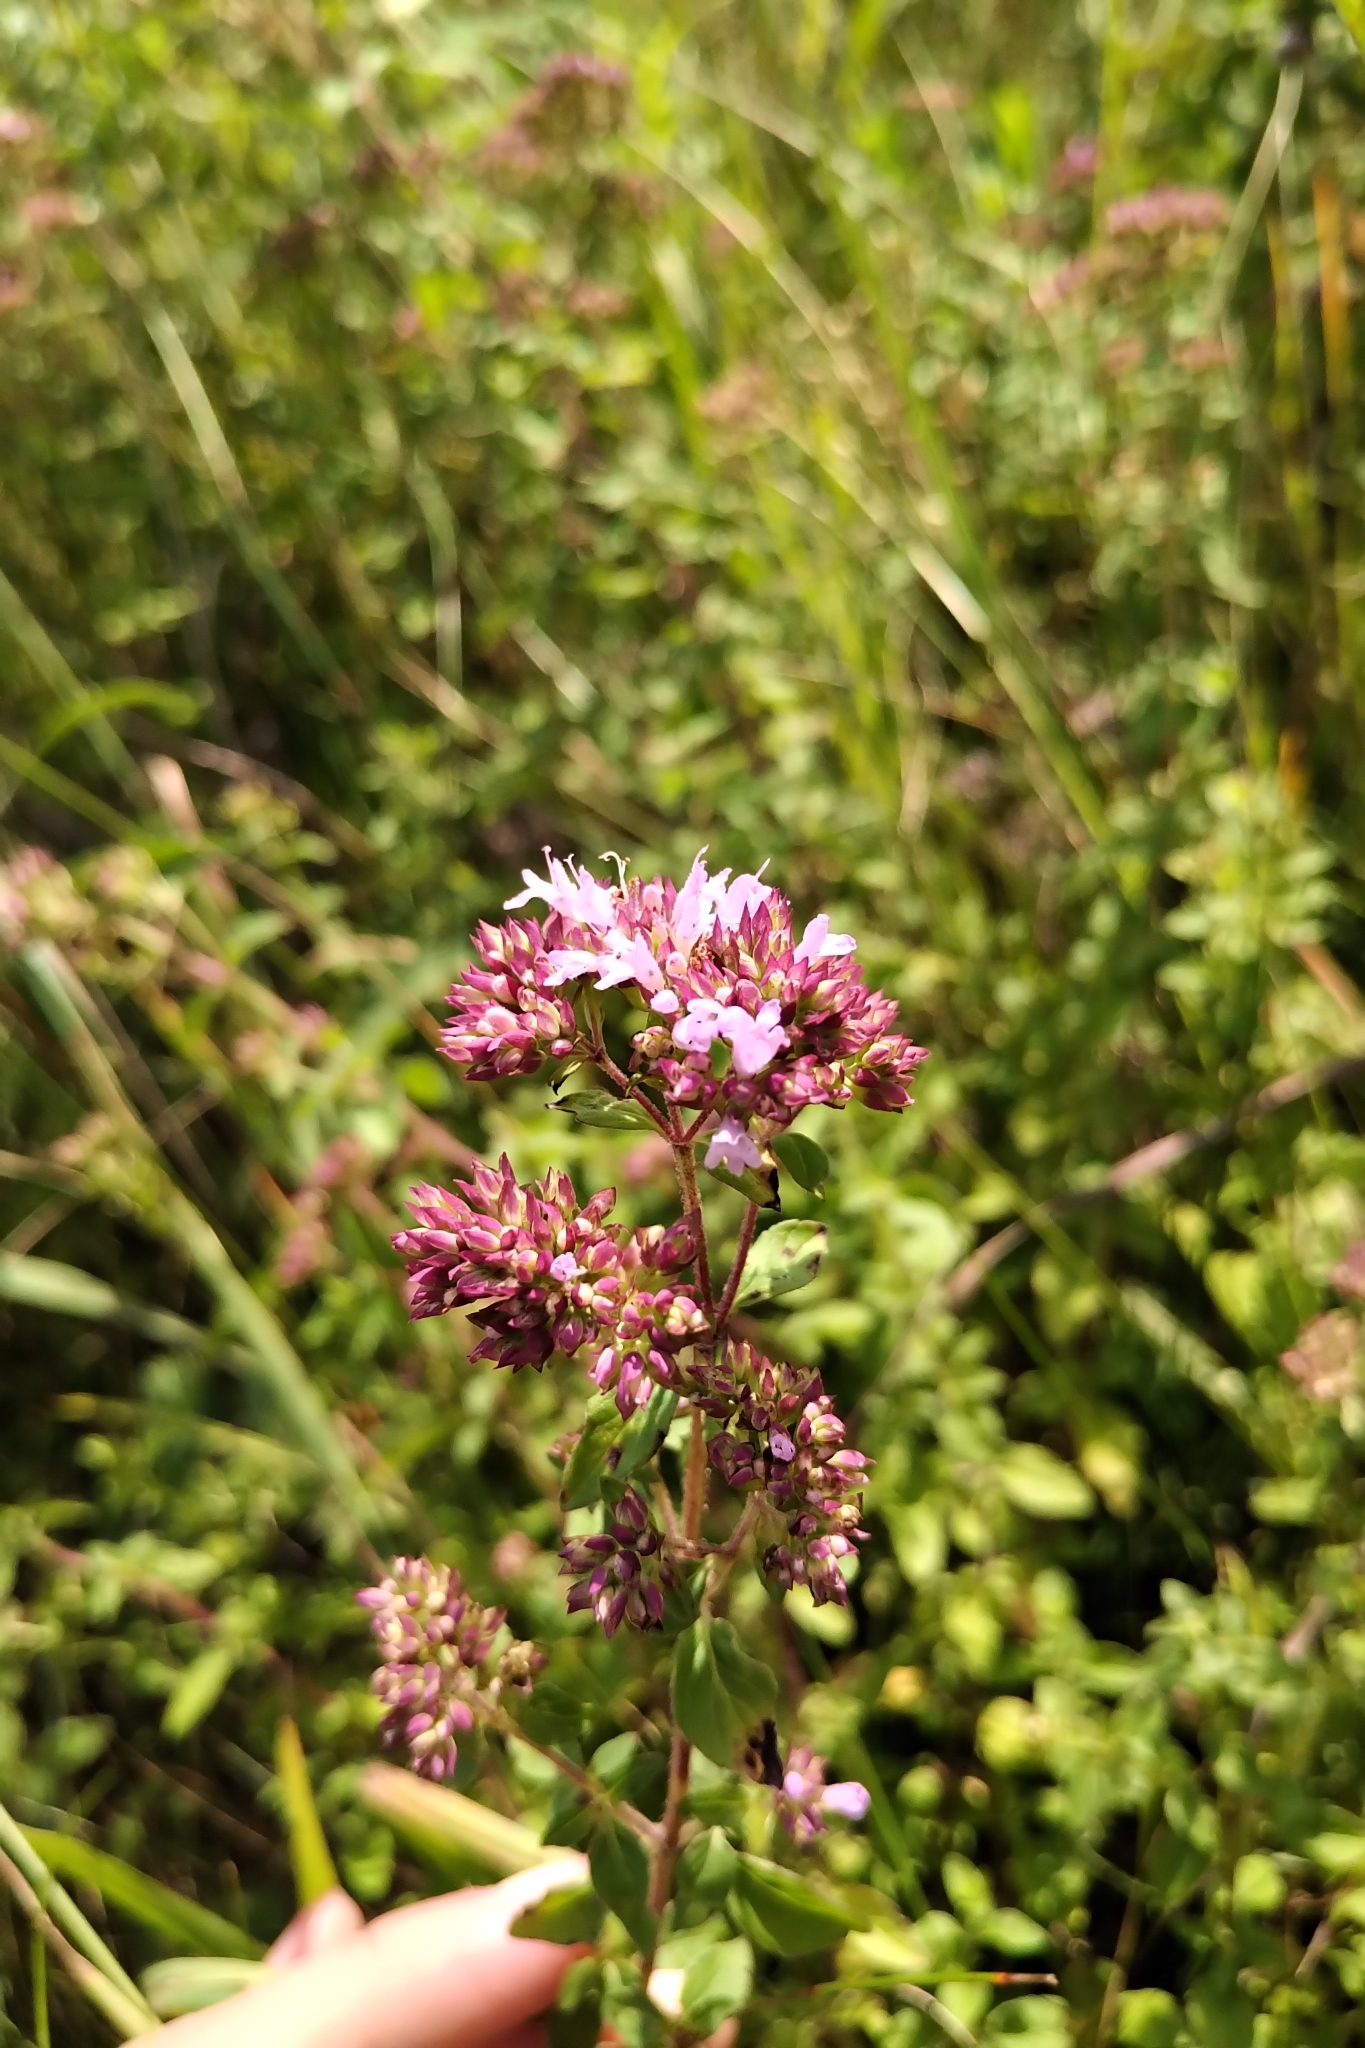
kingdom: Plantae
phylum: Tracheophyta
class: Magnoliopsida
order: Lamiales
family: Lamiaceae
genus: Origanum
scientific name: Origanum vulgare
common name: Wild marjoram
